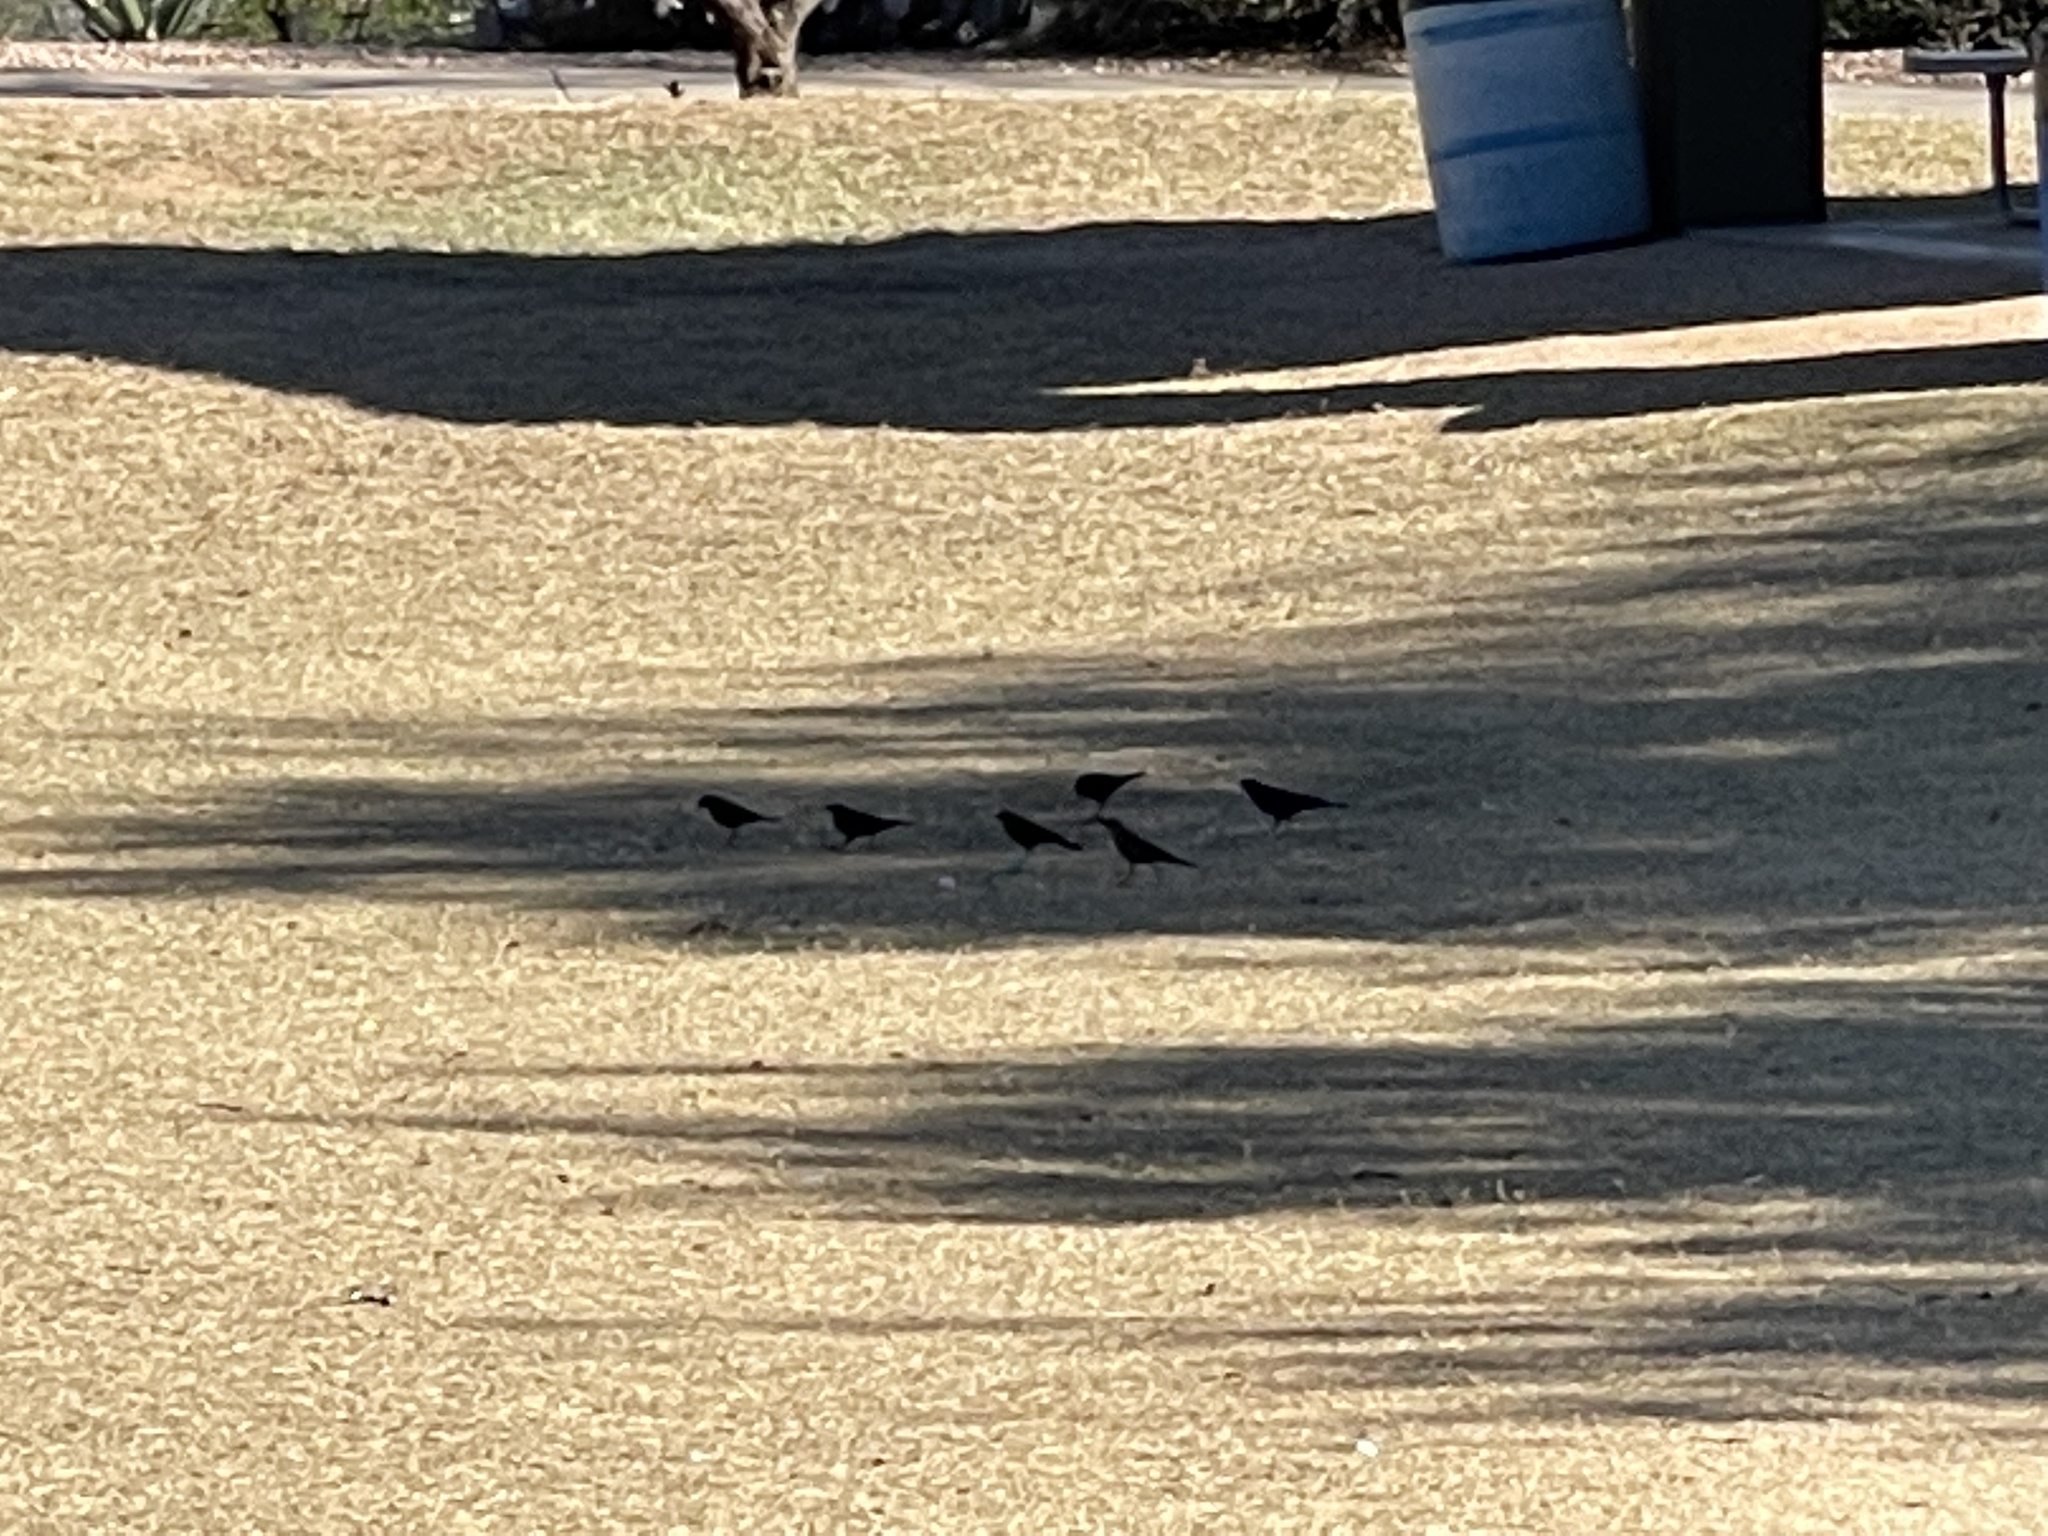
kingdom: Animalia
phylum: Chordata
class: Aves
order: Passeriformes
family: Icteridae
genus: Quiscalus
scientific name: Quiscalus mexicanus
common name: Great-tailed grackle
